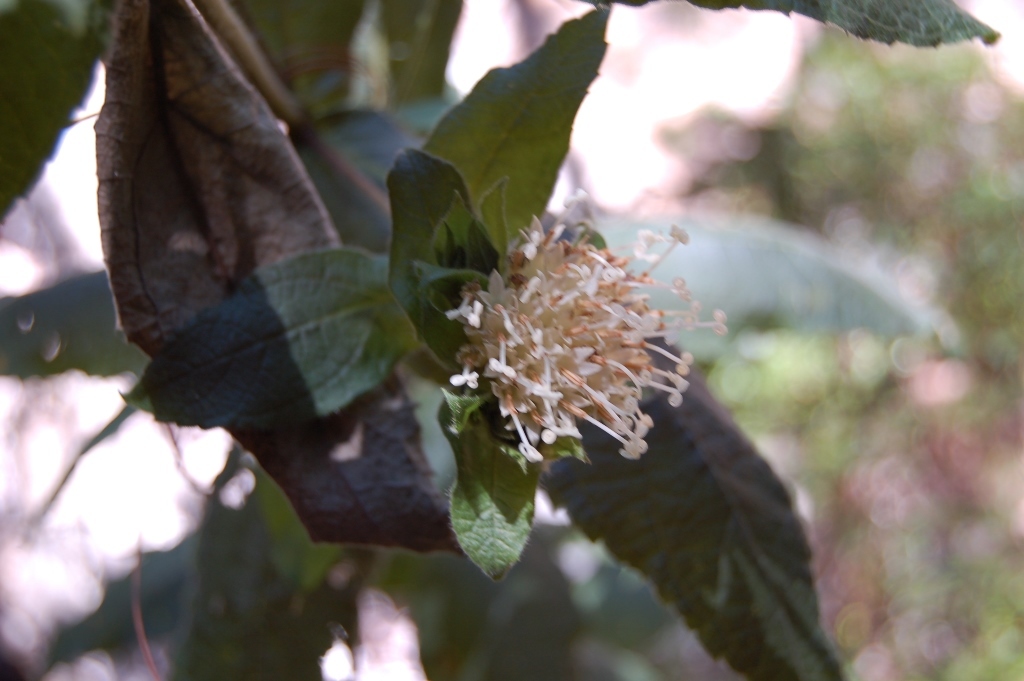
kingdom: Plantae
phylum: Tracheophyta
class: Magnoliopsida
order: Asterales
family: Asteraceae
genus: Lagascea
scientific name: Lagascea helianthifolia
